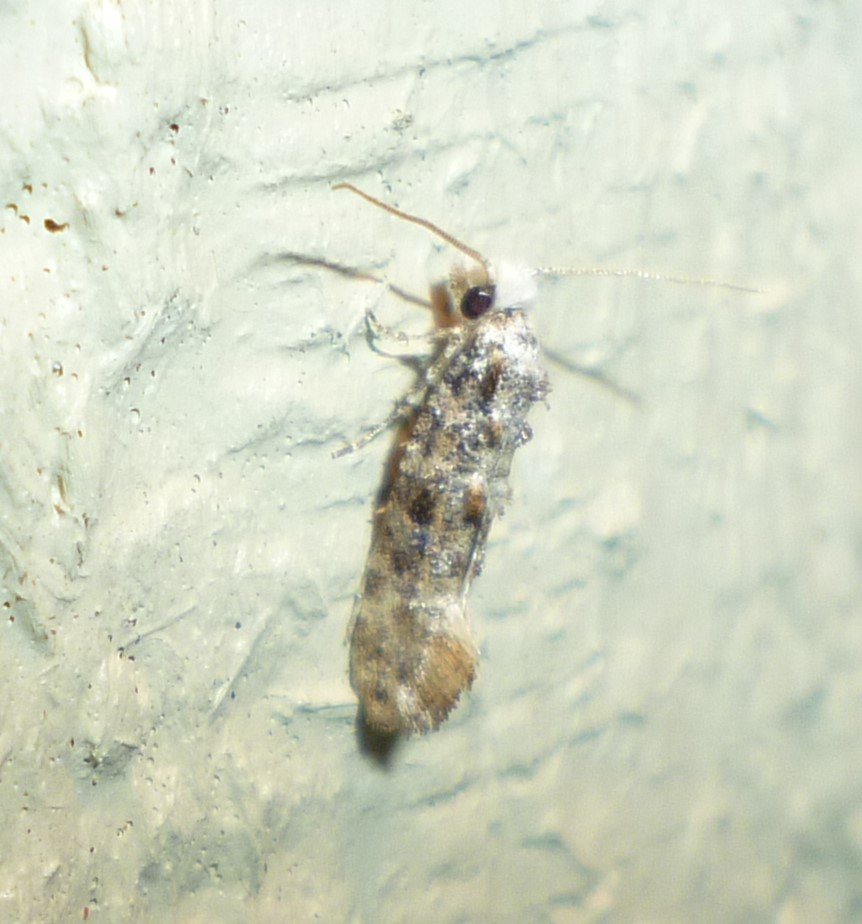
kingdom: Animalia
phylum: Arthropoda
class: Insecta
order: Lepidoptera
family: Tineidae
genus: Xylesthia
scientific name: Xylesthia pruniramiella
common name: Clemens' bark moth
